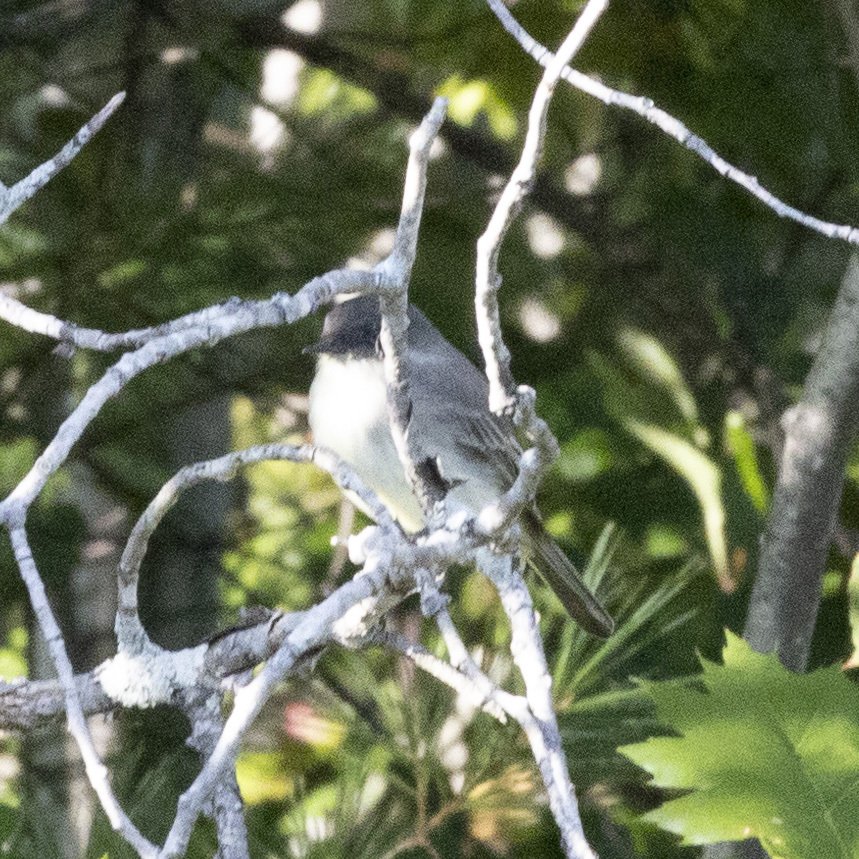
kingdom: Animalia
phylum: Chordata
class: Aves
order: Passeriformes
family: Tyrannidae
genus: Sayornis
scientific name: Sayornis phoebe
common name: Eastern phoebe
